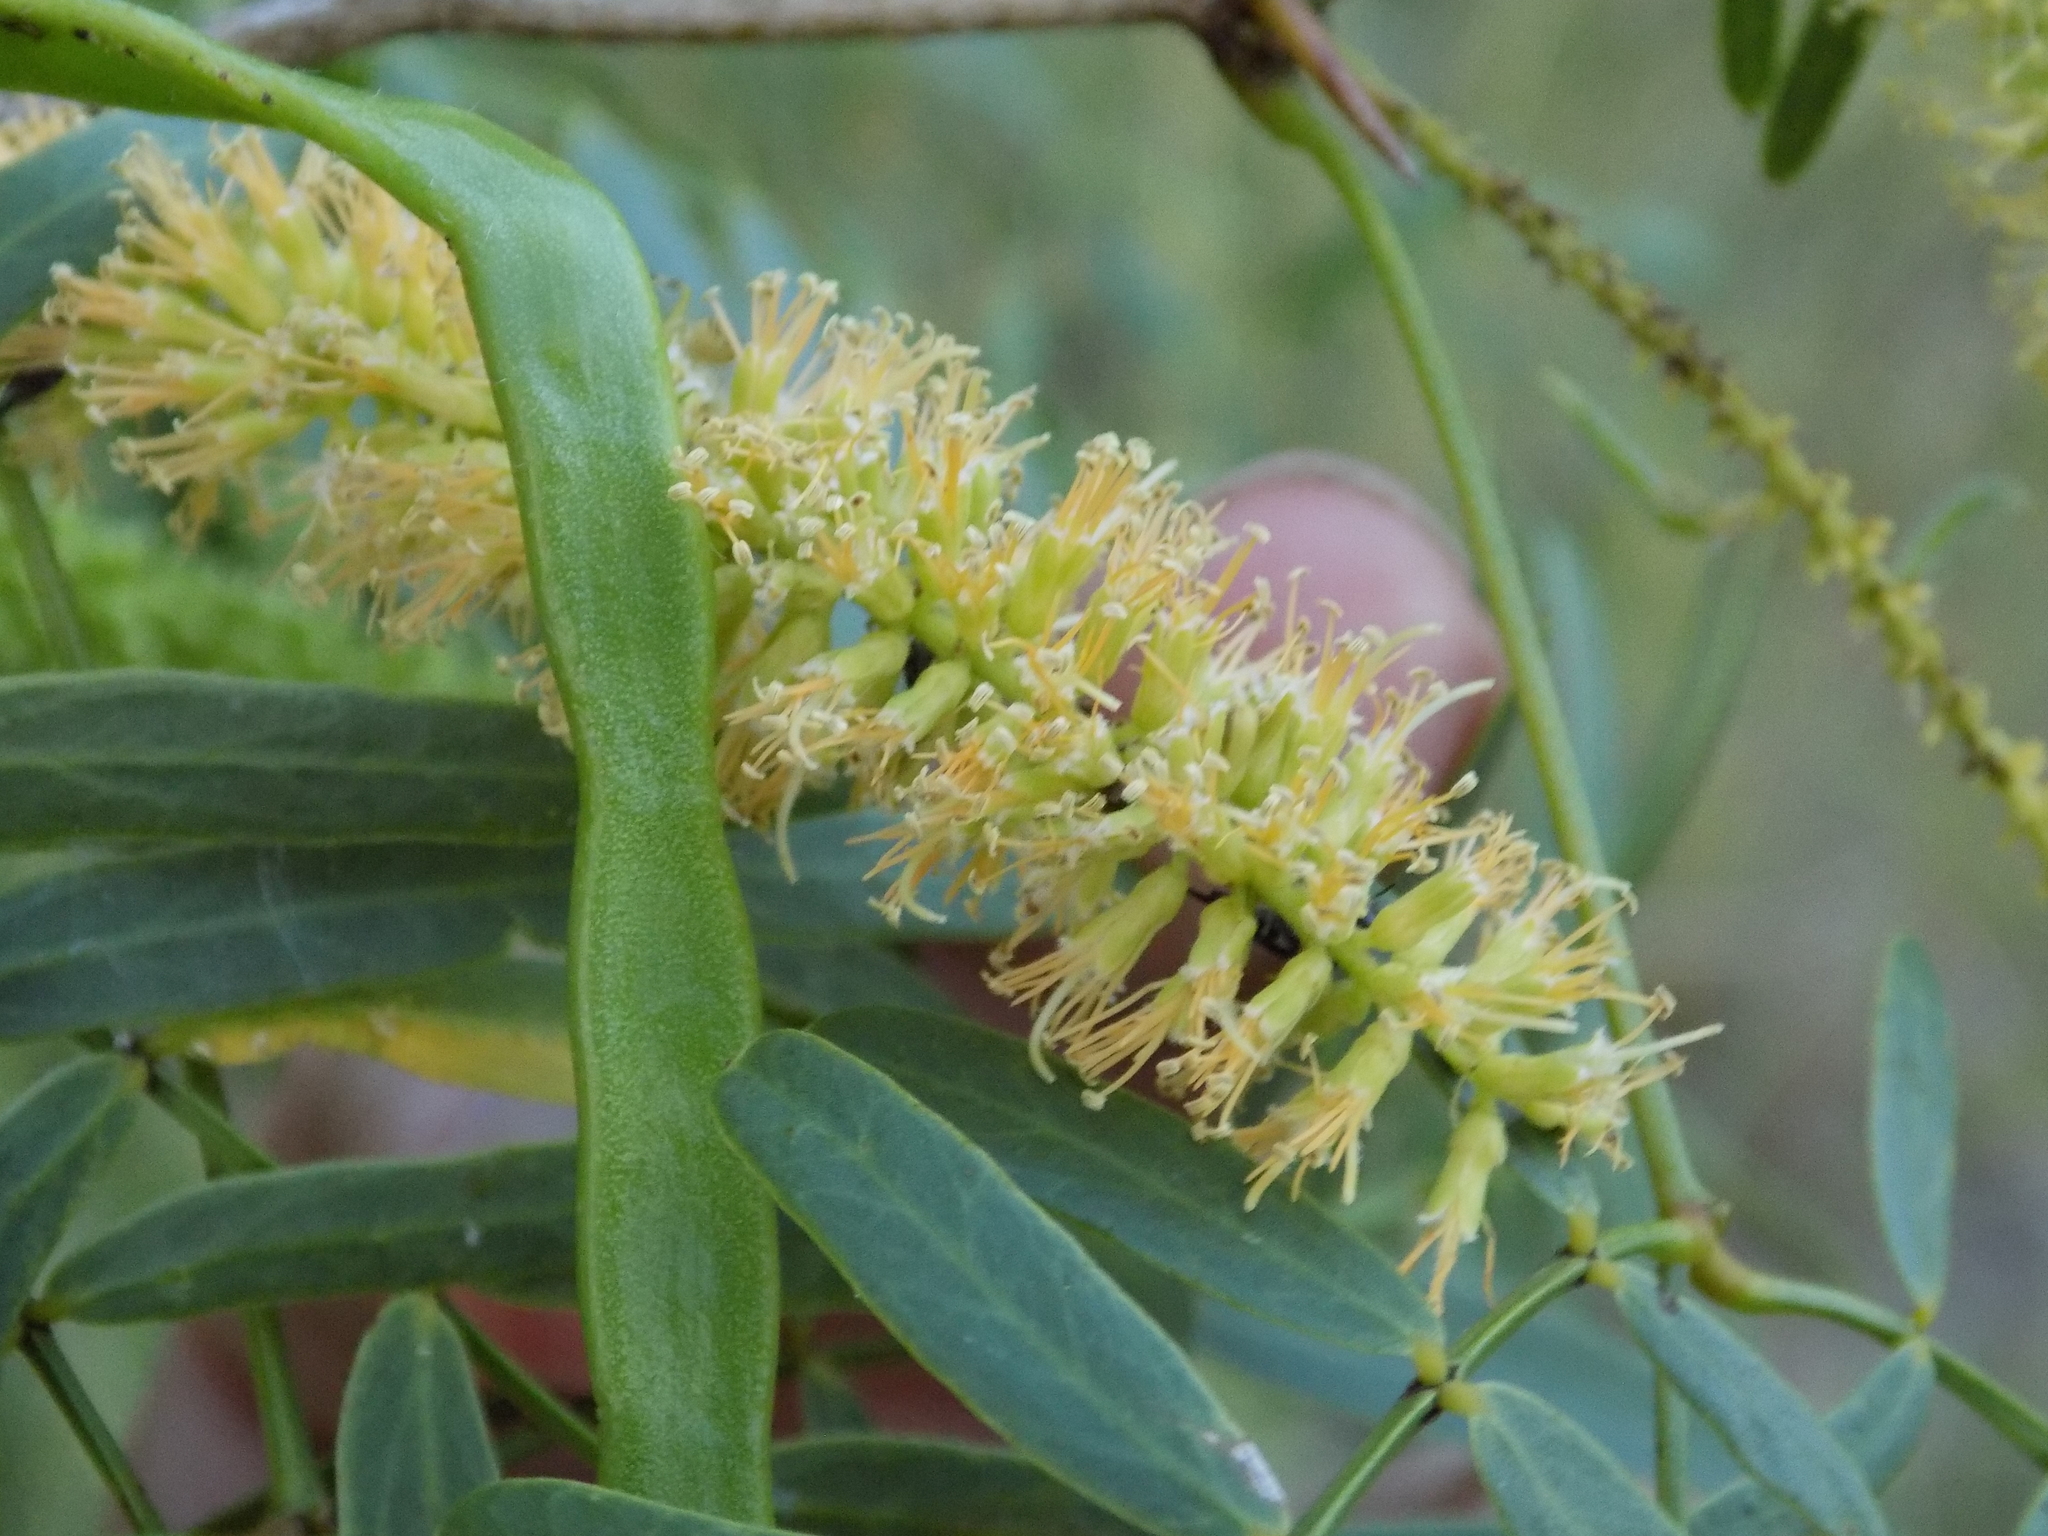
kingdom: Plantae
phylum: Tracheophyta
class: Magnoliopsida
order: Fabales
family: Fabaceae
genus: Prosopis
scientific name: Prosopis glandulosa
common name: Honey mesquite
